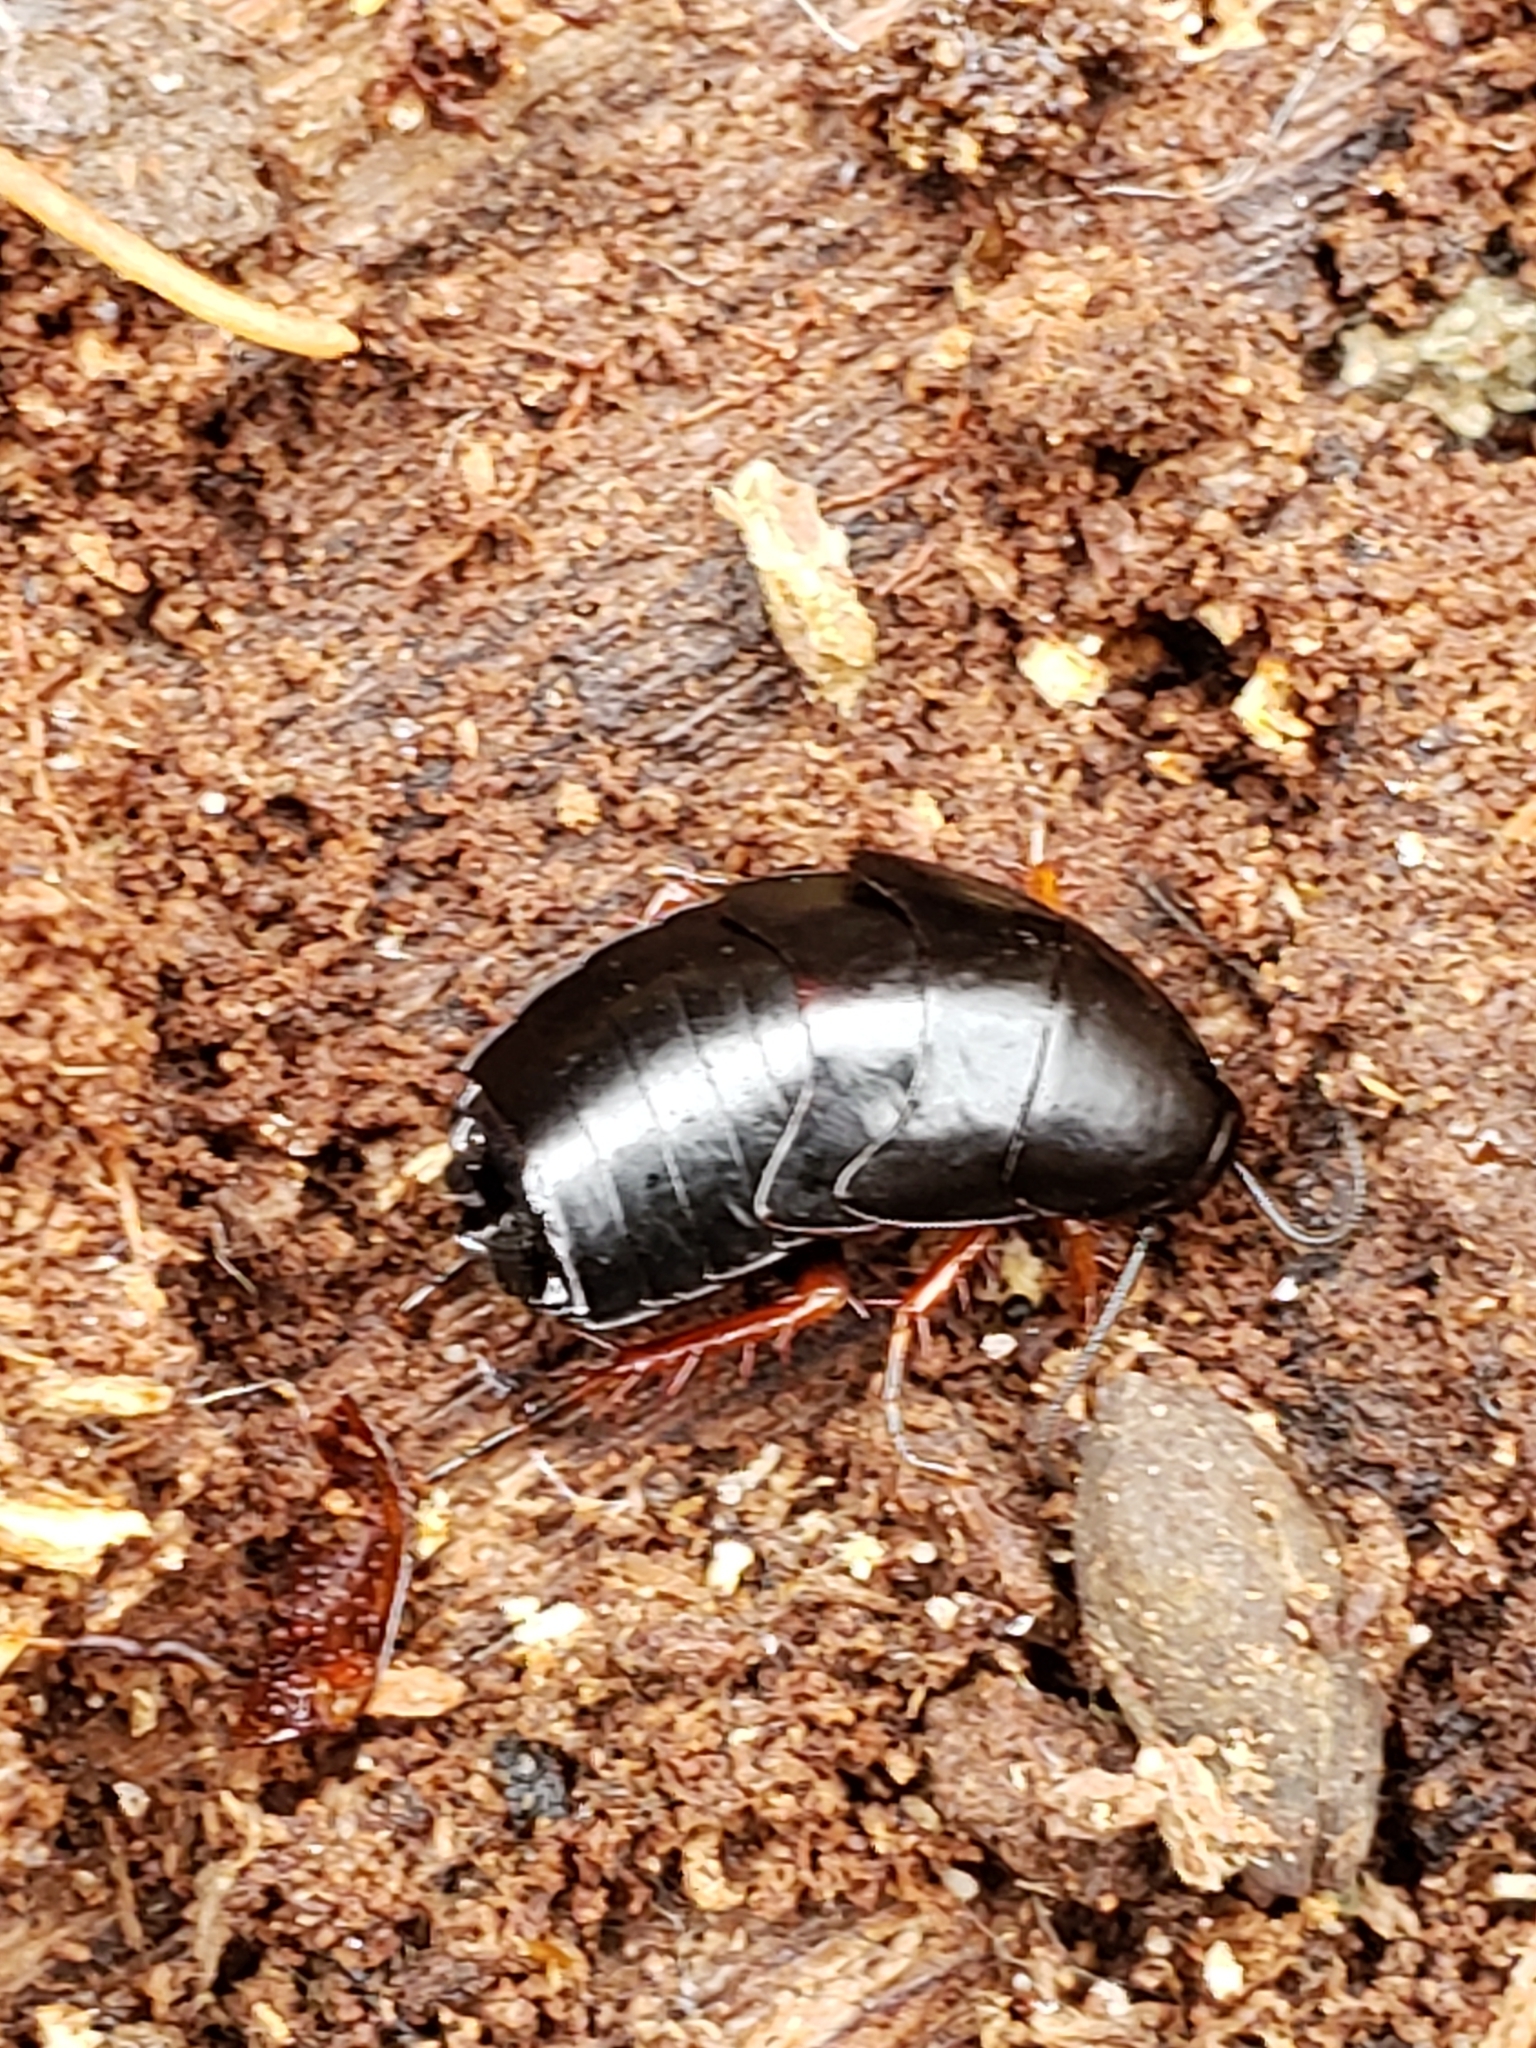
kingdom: Animalia
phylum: Arthropoda
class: Insecta
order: Blattodea
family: Ectobiidae
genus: Ischnoptera
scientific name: Ischnoptera deropeltiformis
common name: Dark wood cockroach
